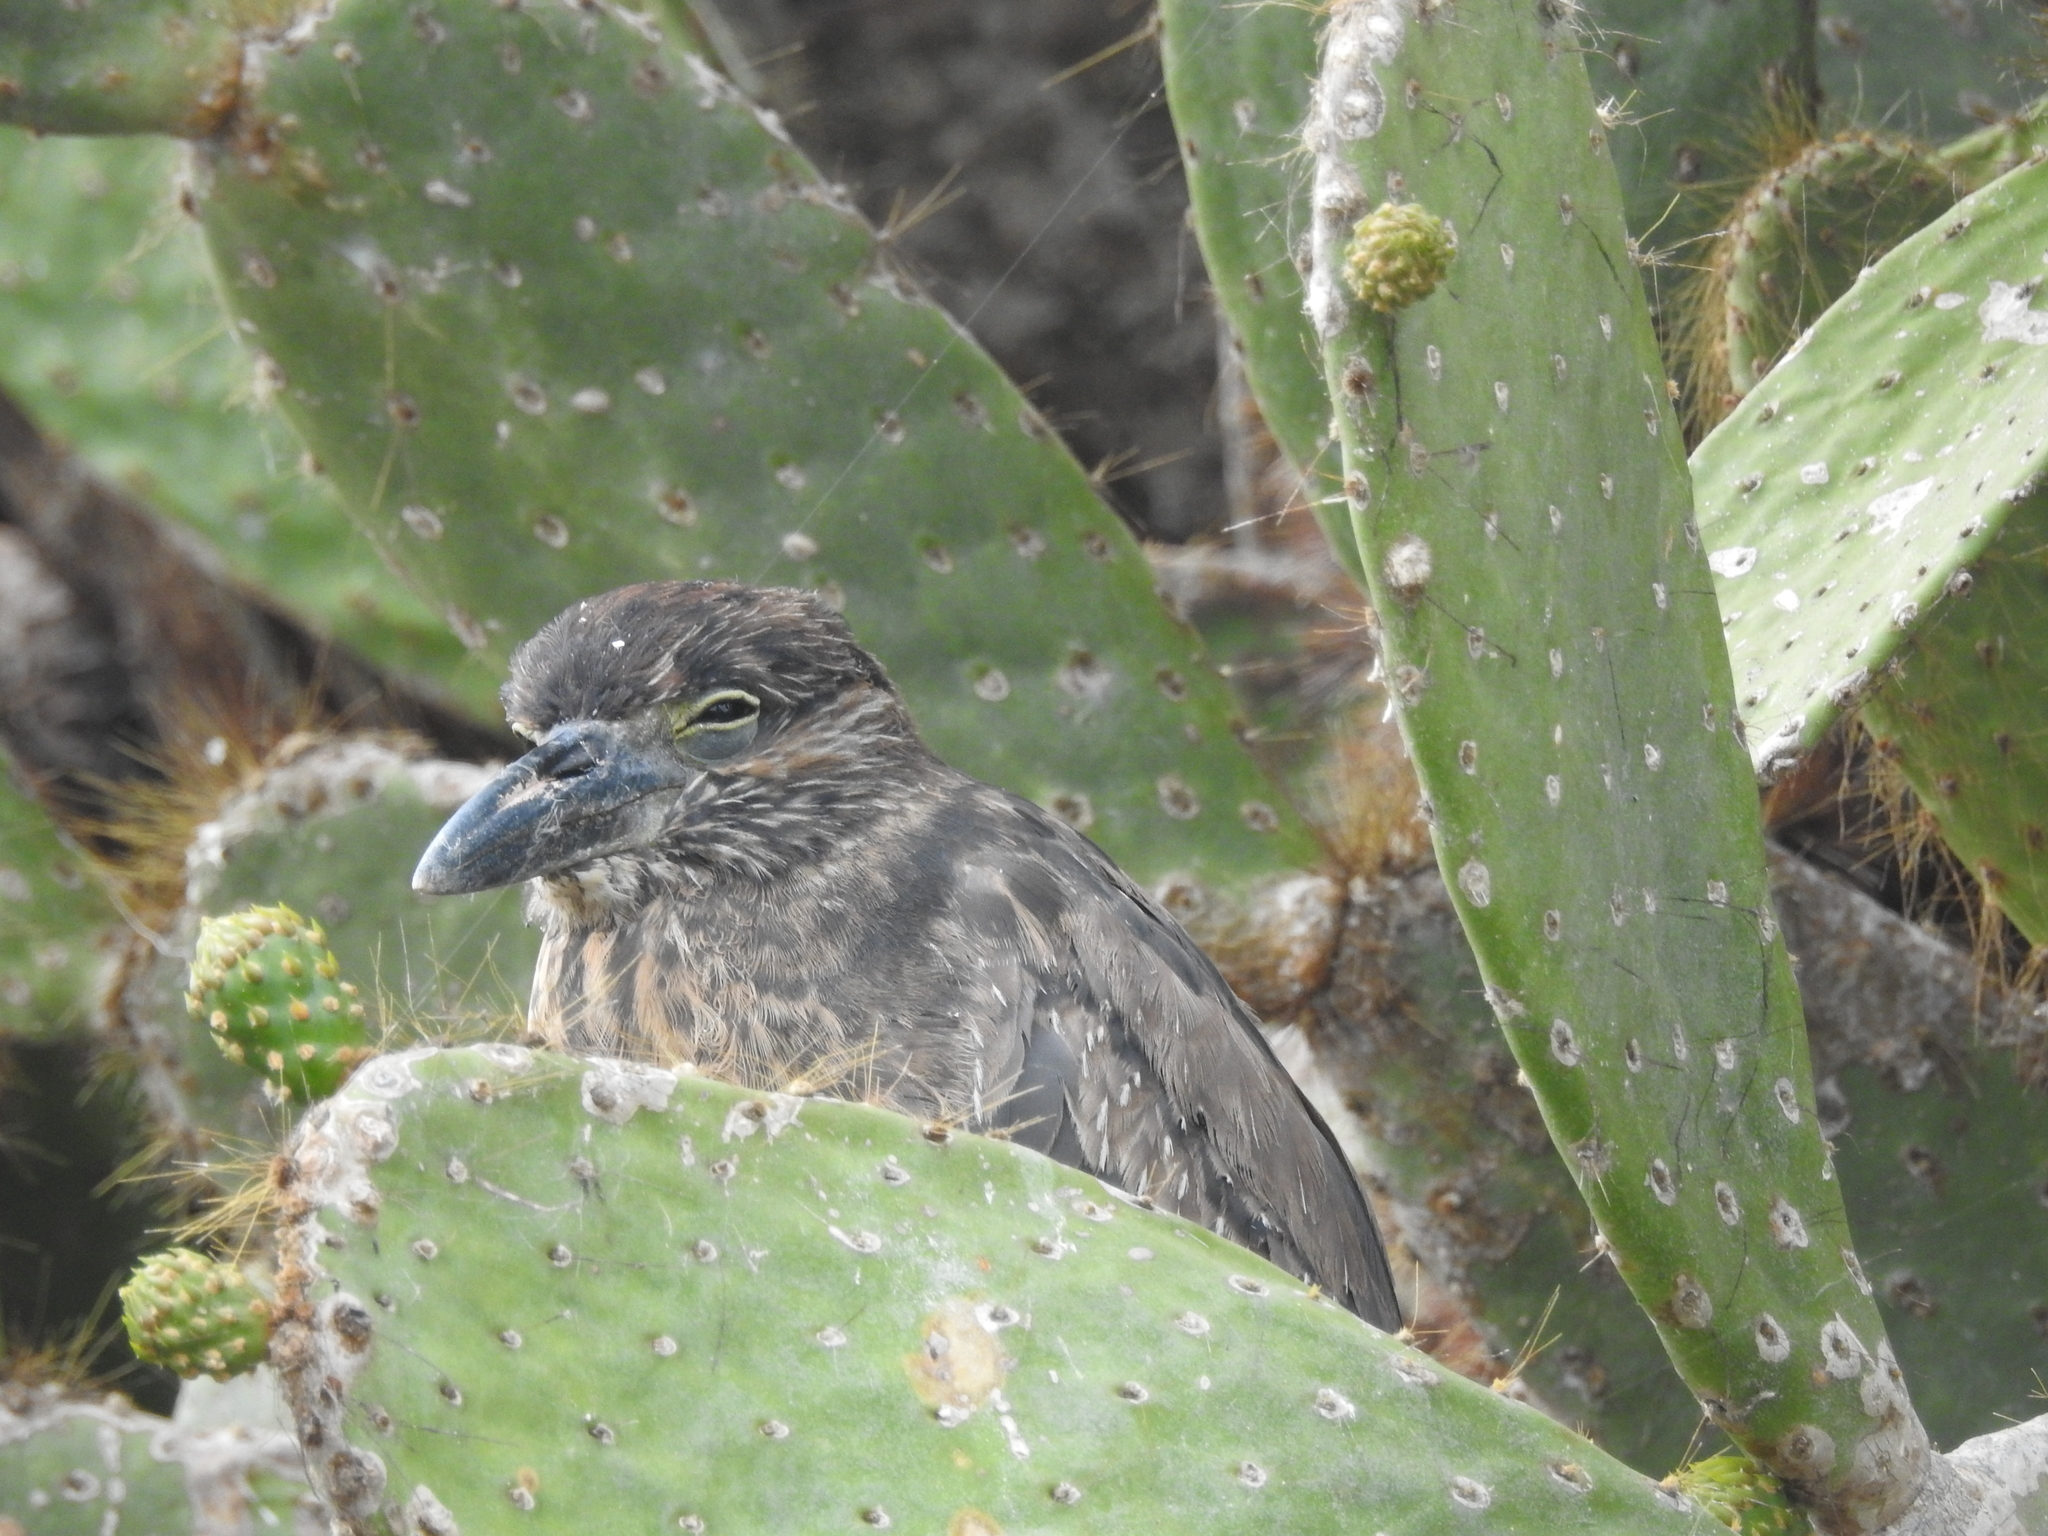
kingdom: Animalia
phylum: Chordata
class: Aves
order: Pelecaniformes
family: Ardeidae
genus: Nyctanassa
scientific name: Nyctanassa violacea
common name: Yellow-crowned night heron
